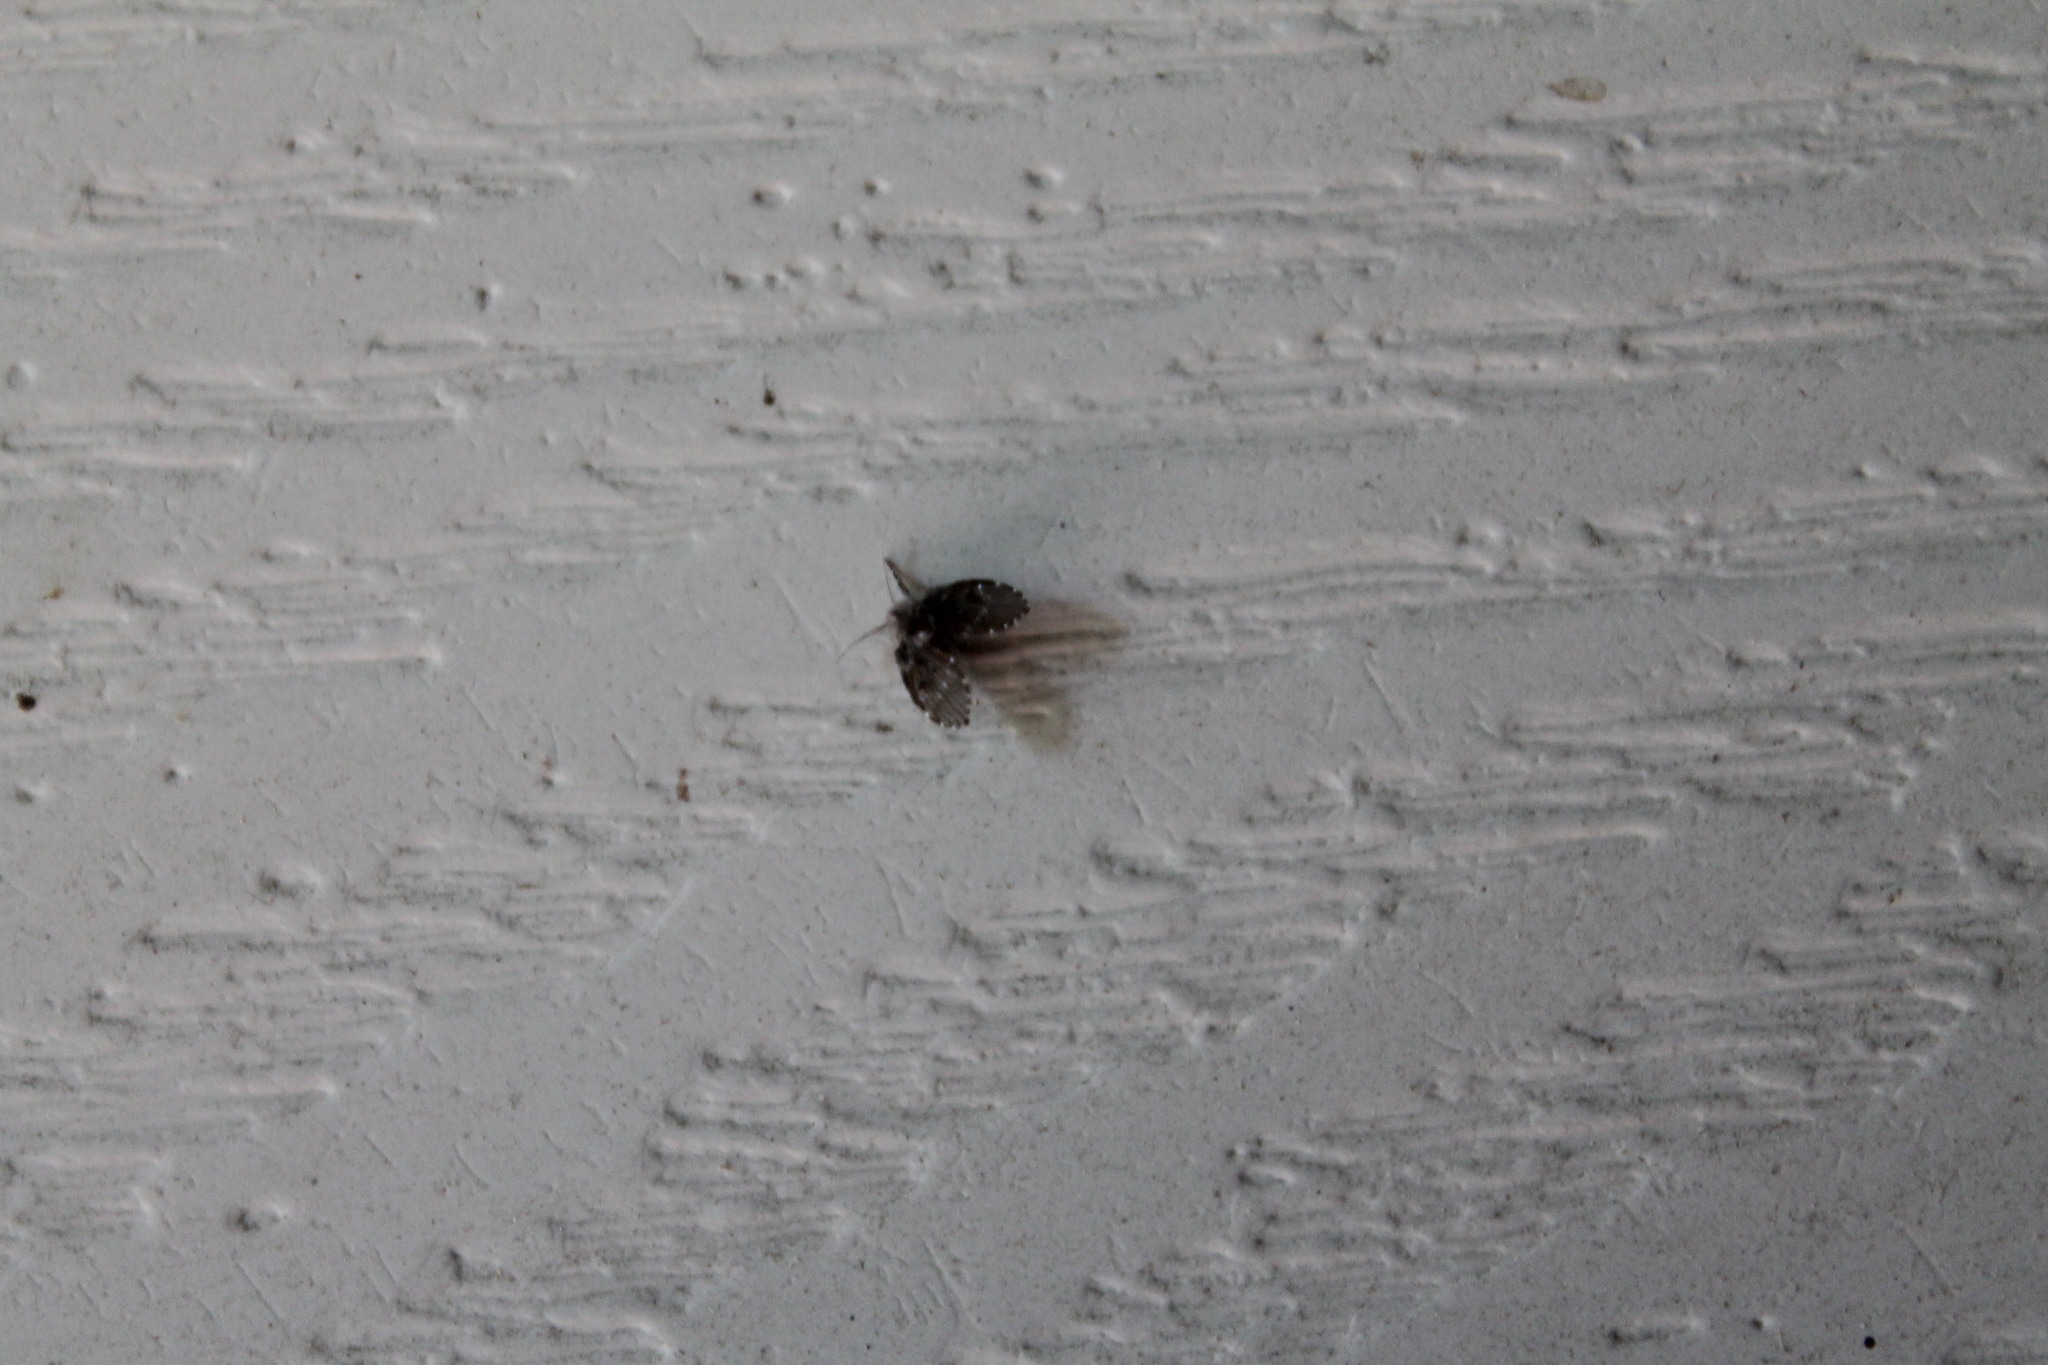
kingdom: Animalia
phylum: Arthropoda
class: Insecta
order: Diptera
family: Psychodidae
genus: Clogmia
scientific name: Clogmia albipunctatus
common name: White-spotted moth fly
